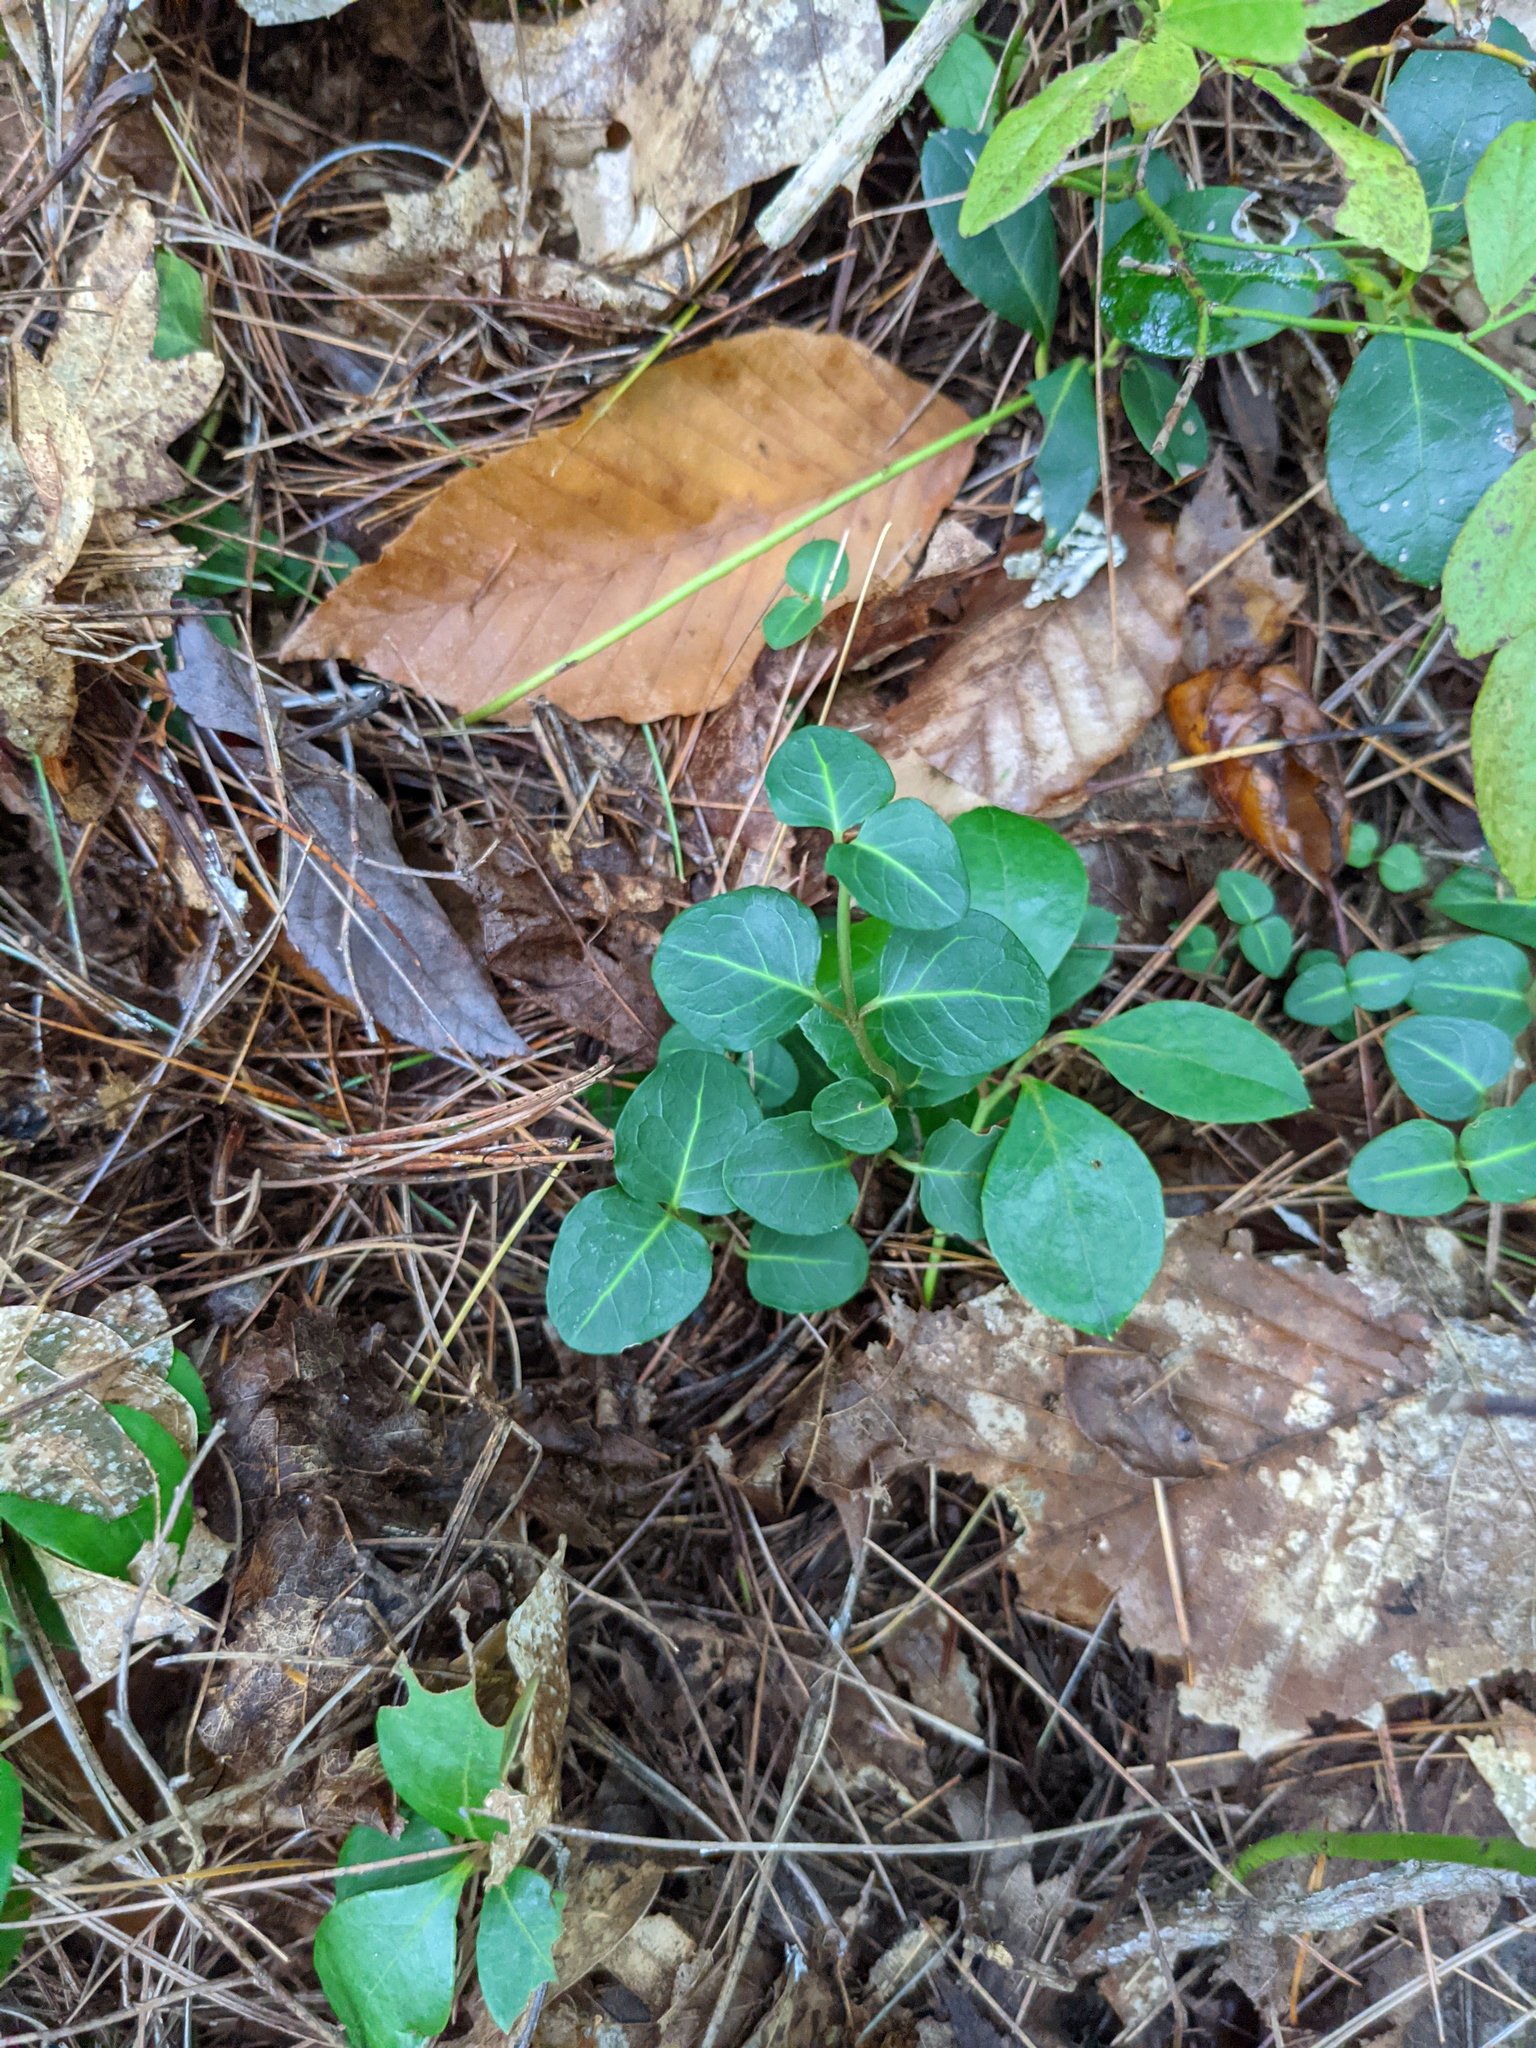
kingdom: Plantae
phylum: Tracheophyta
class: Magnoliopsida
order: Gentianales
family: Rubiaceae
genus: Mitchella
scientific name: Mitchella repens
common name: Partridge-berry
